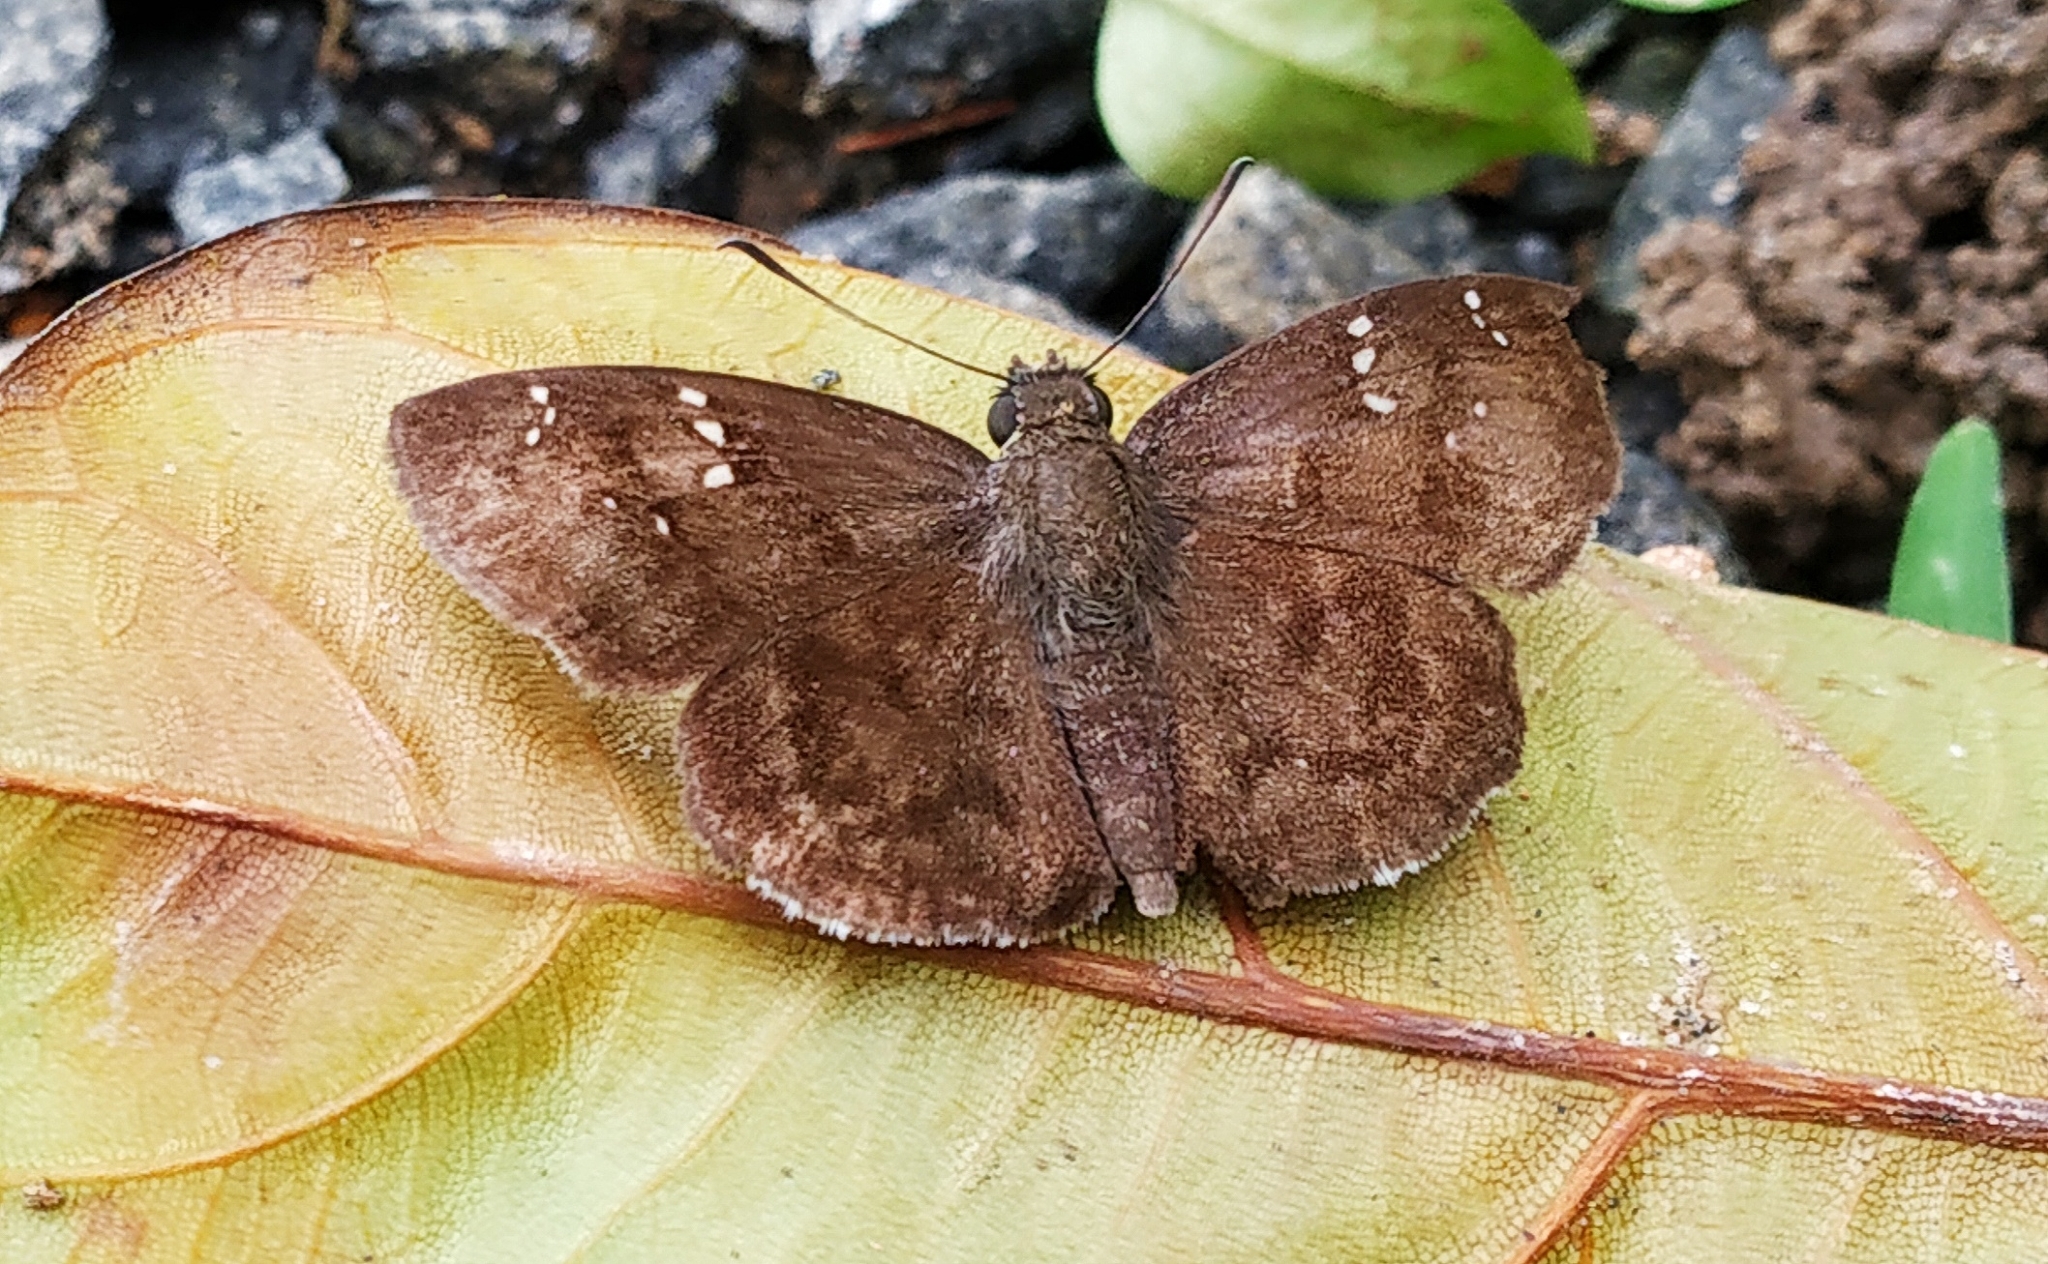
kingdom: Animalia
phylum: Arthropoda
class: Insecta
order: Lepidoptera
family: Hesperiidae
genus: Sarangesa
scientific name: Sarangesa dasahara
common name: Common small flat
